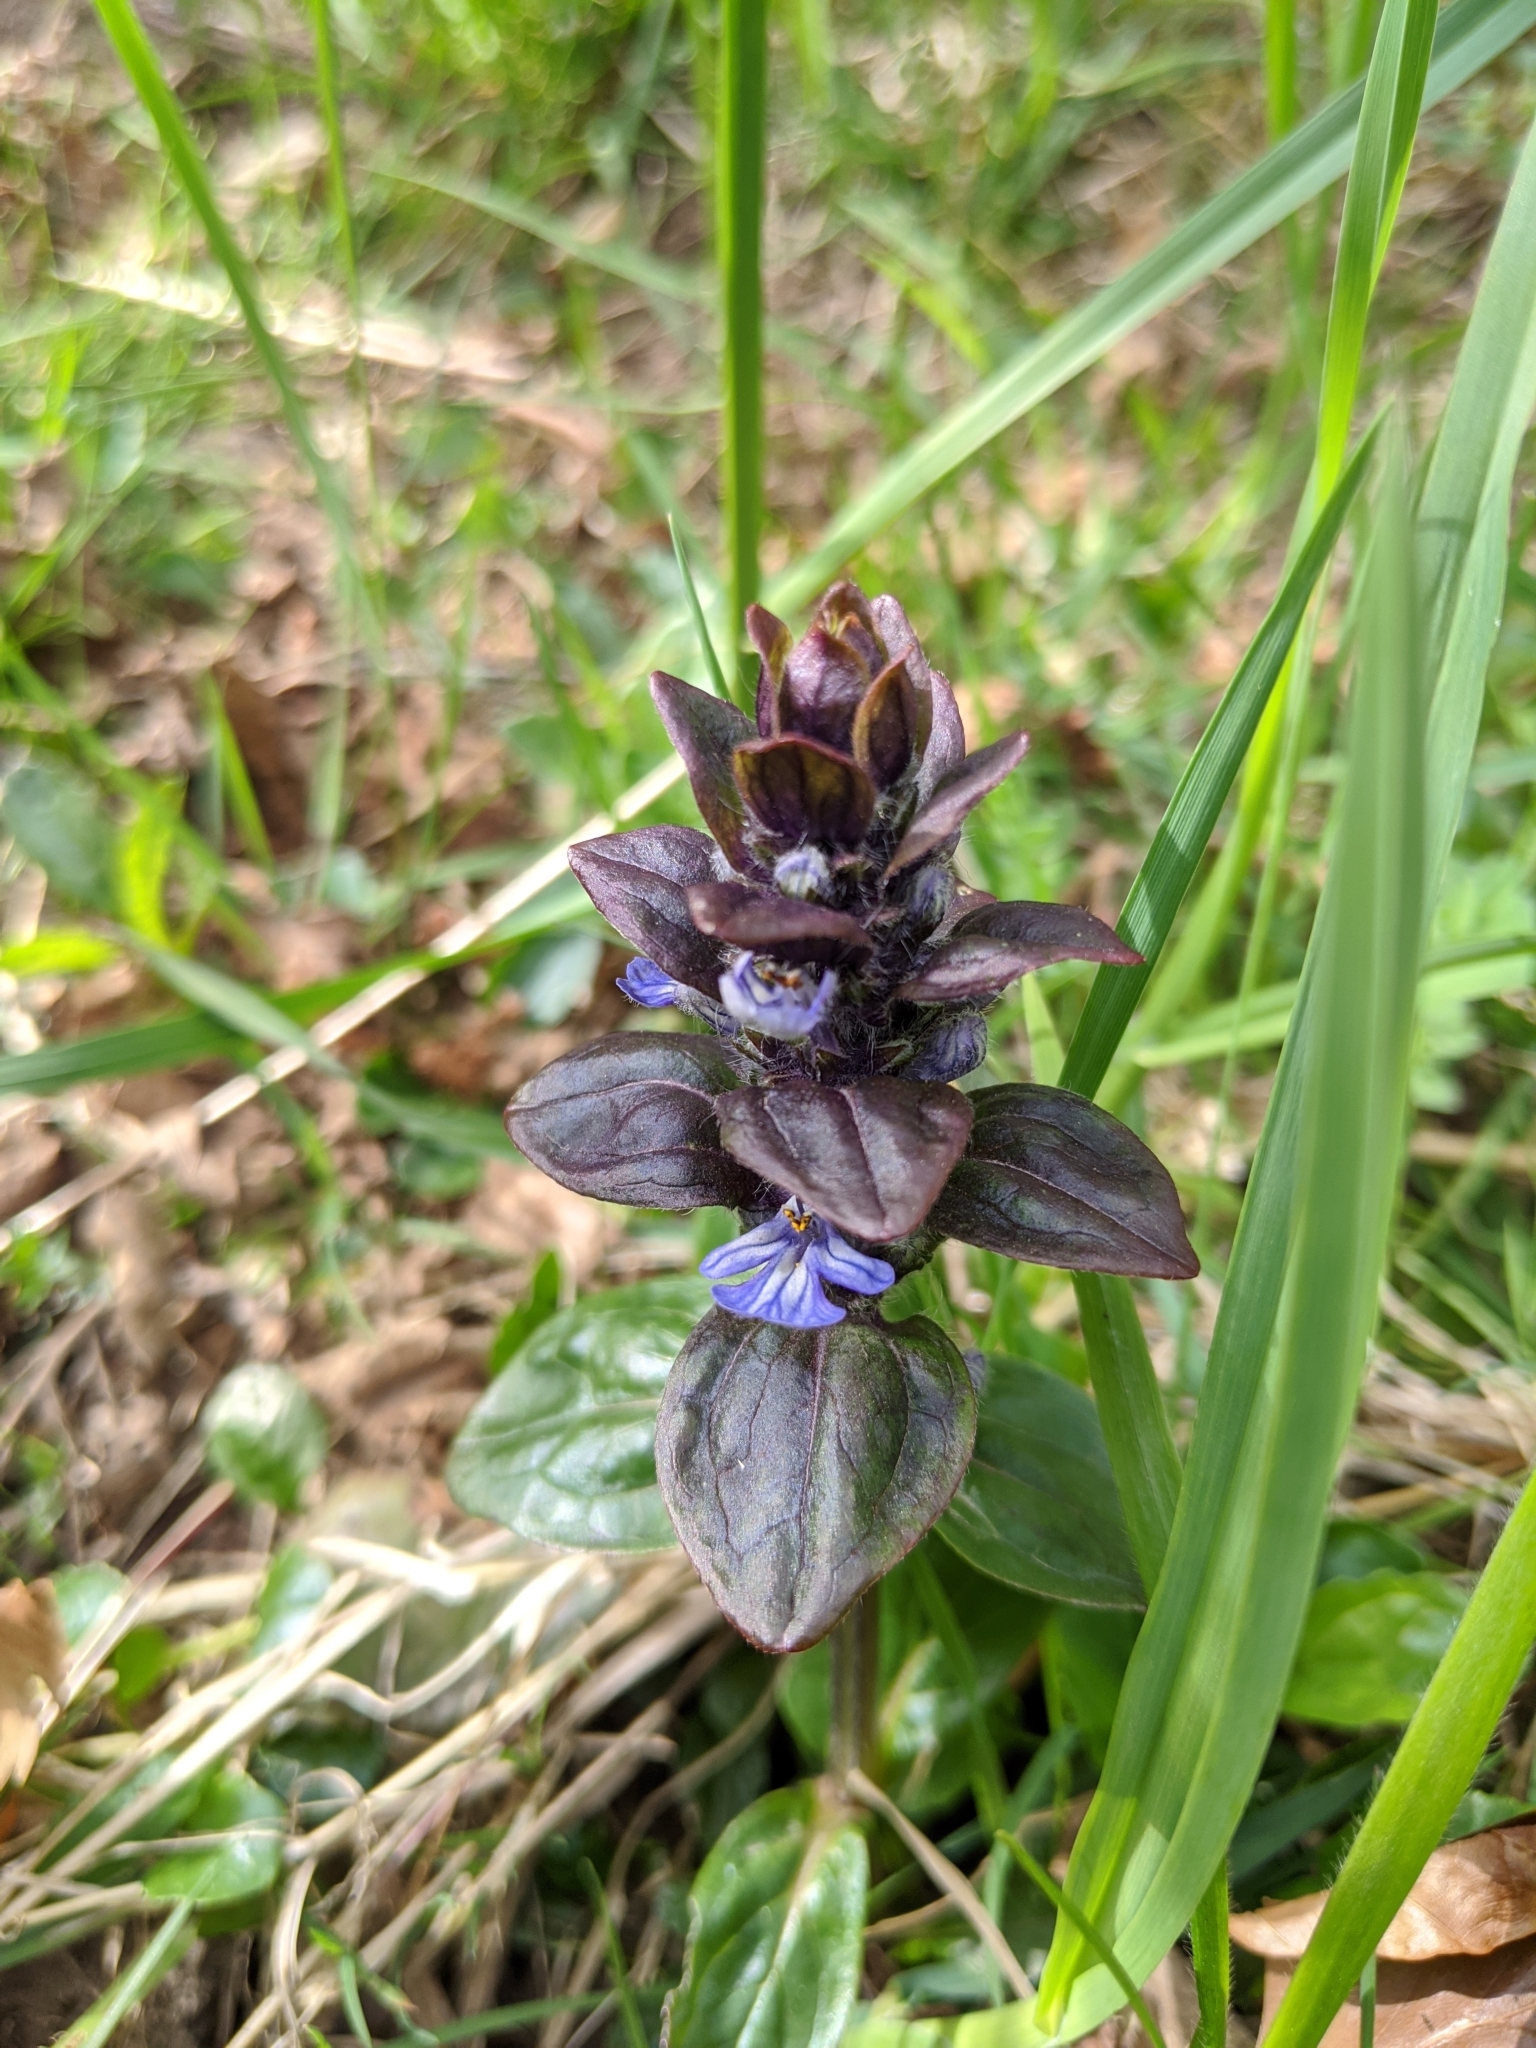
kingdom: Plantae
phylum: Tracheophyta
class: Magnoliopsida
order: Lamiales
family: Lamiaceae
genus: Ajuga
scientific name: Ajuga reptans
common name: Bugle
